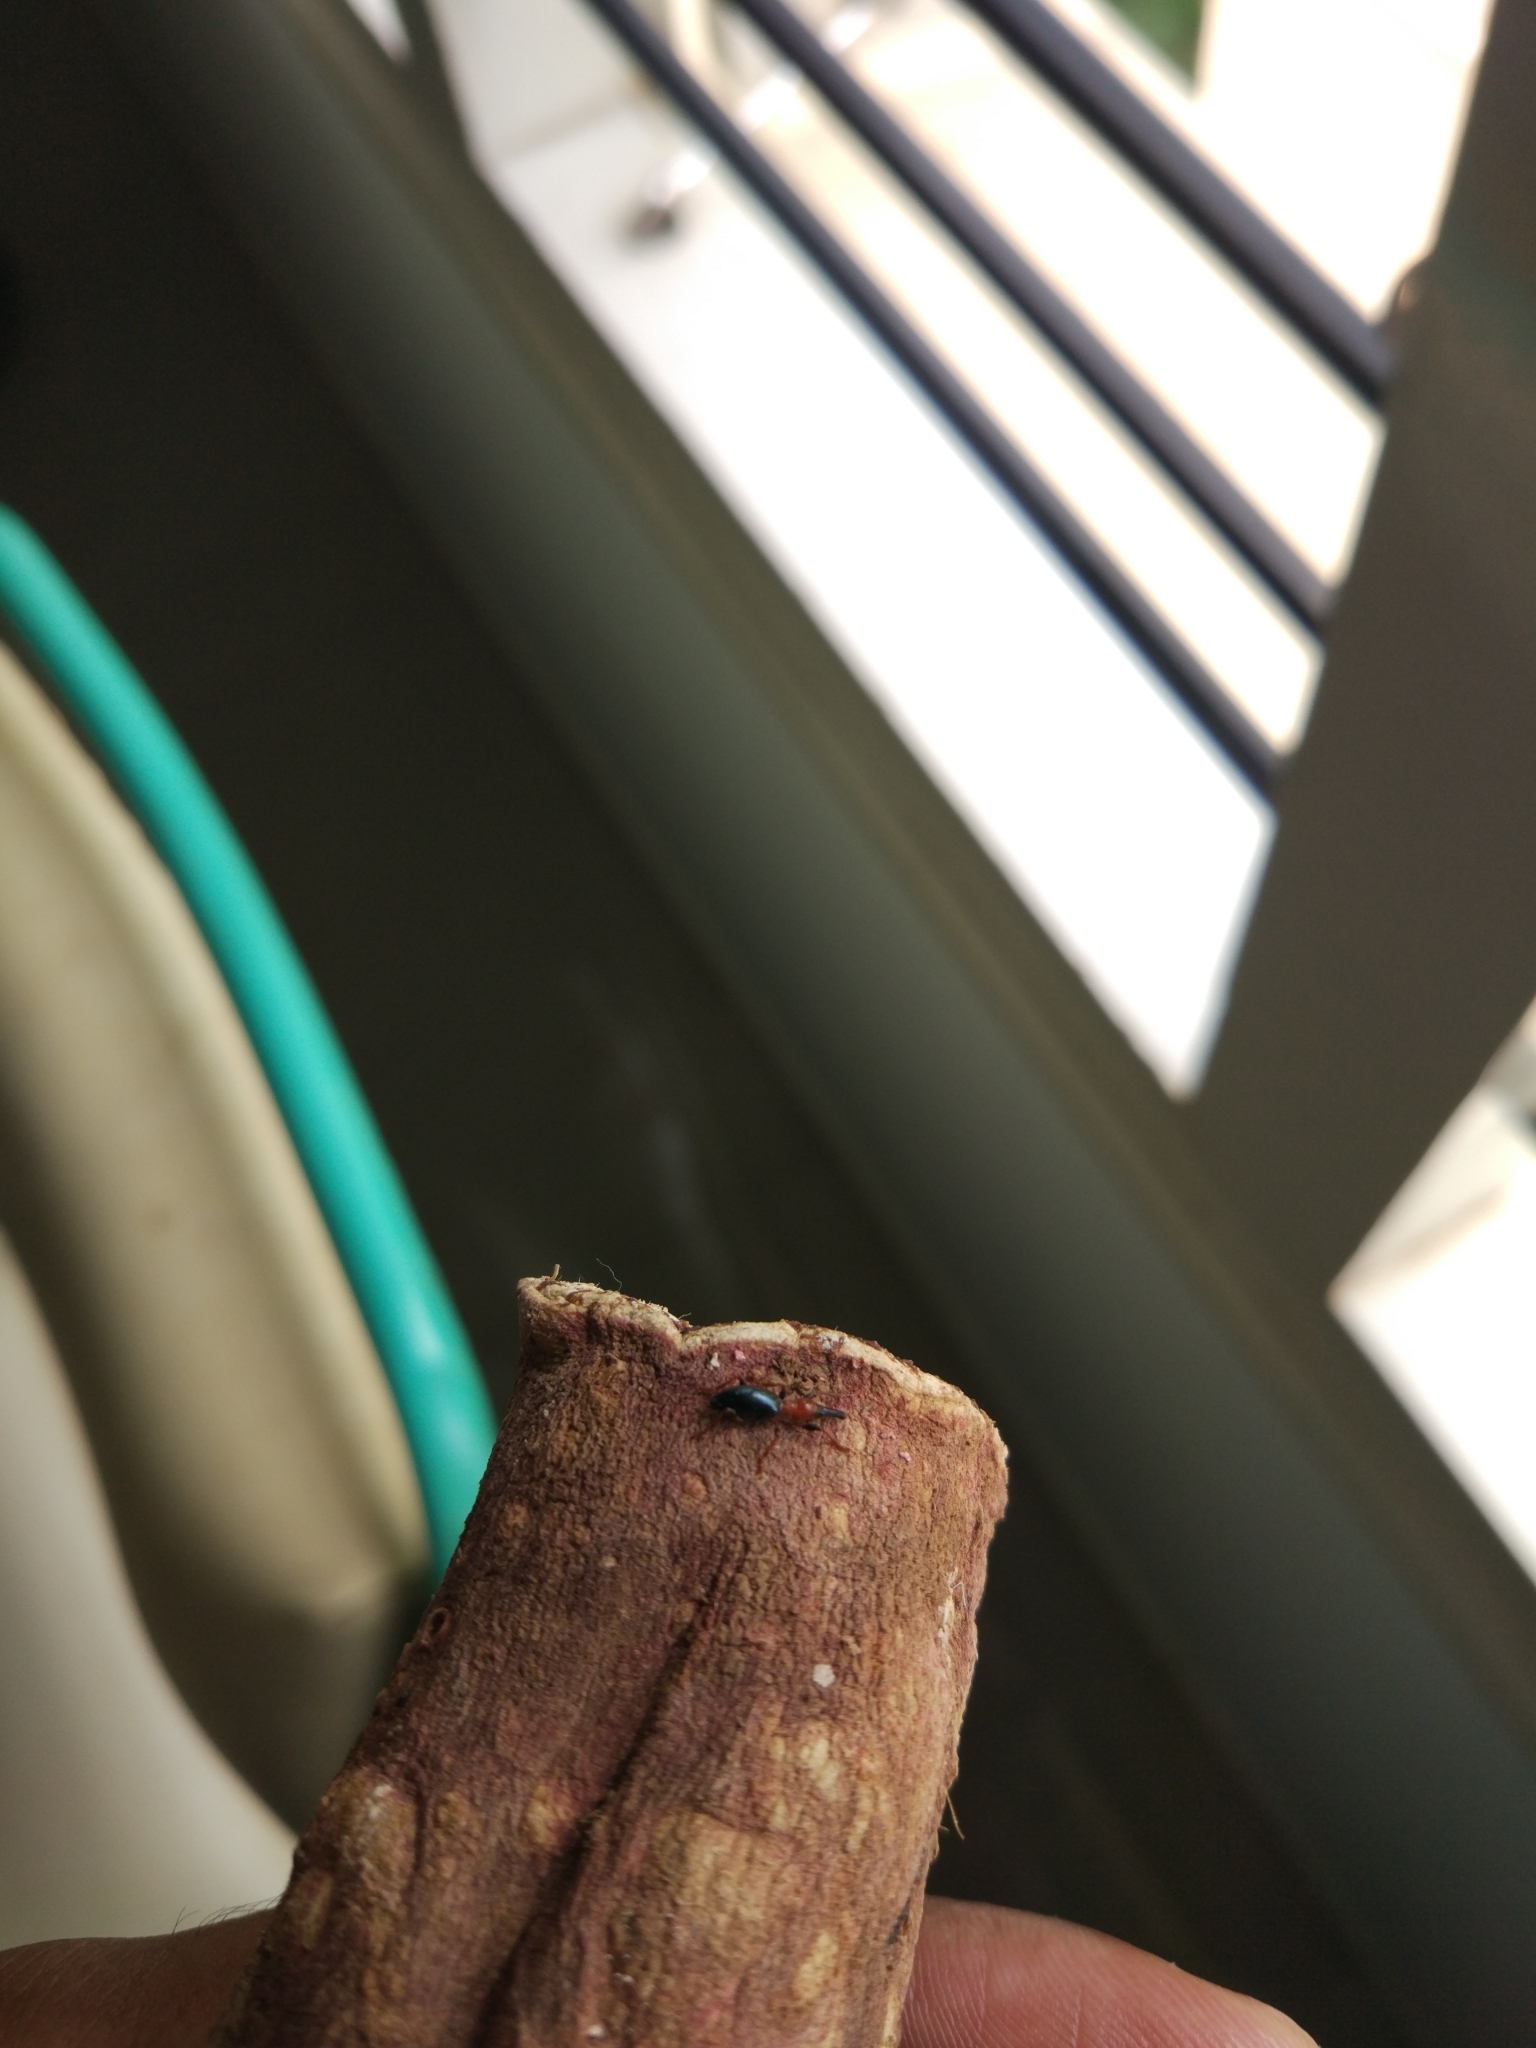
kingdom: Animalia
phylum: Arthropoda
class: Insecta
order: Coleoptera
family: Brentidae
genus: Cylas
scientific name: Cylas formicarius
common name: Sweetpotato weevil
